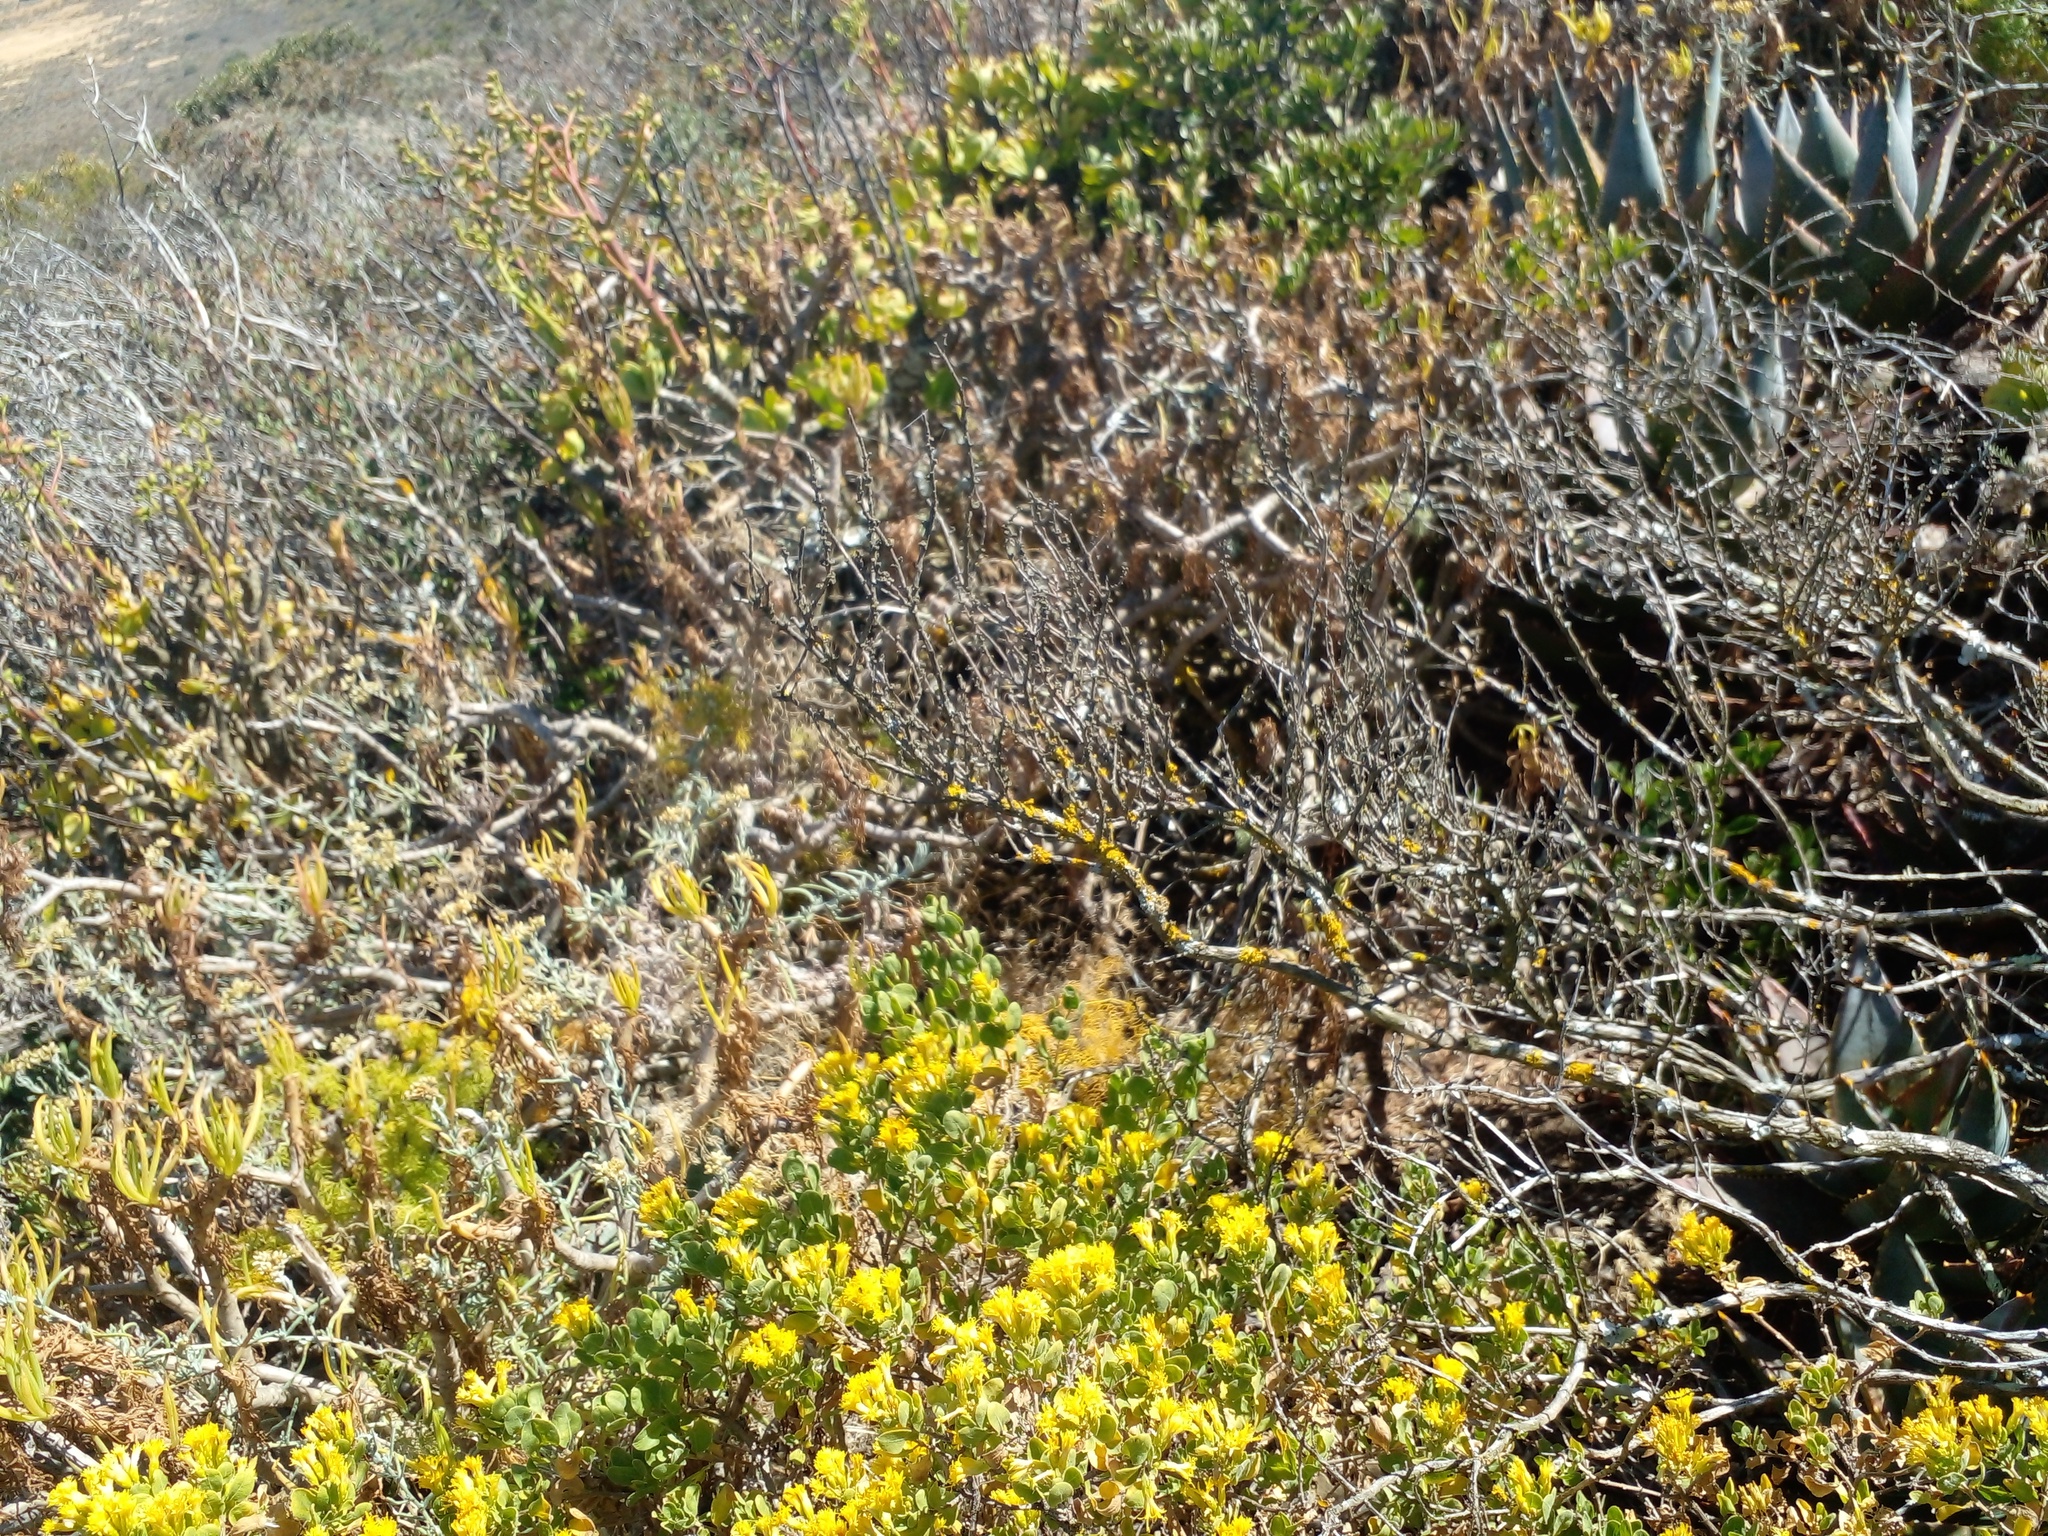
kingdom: Plantae
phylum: Tracheophyta
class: Magnoliopsida
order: Asterales
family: Asteraceae
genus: Pteronia
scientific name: Pteronia divaricata
